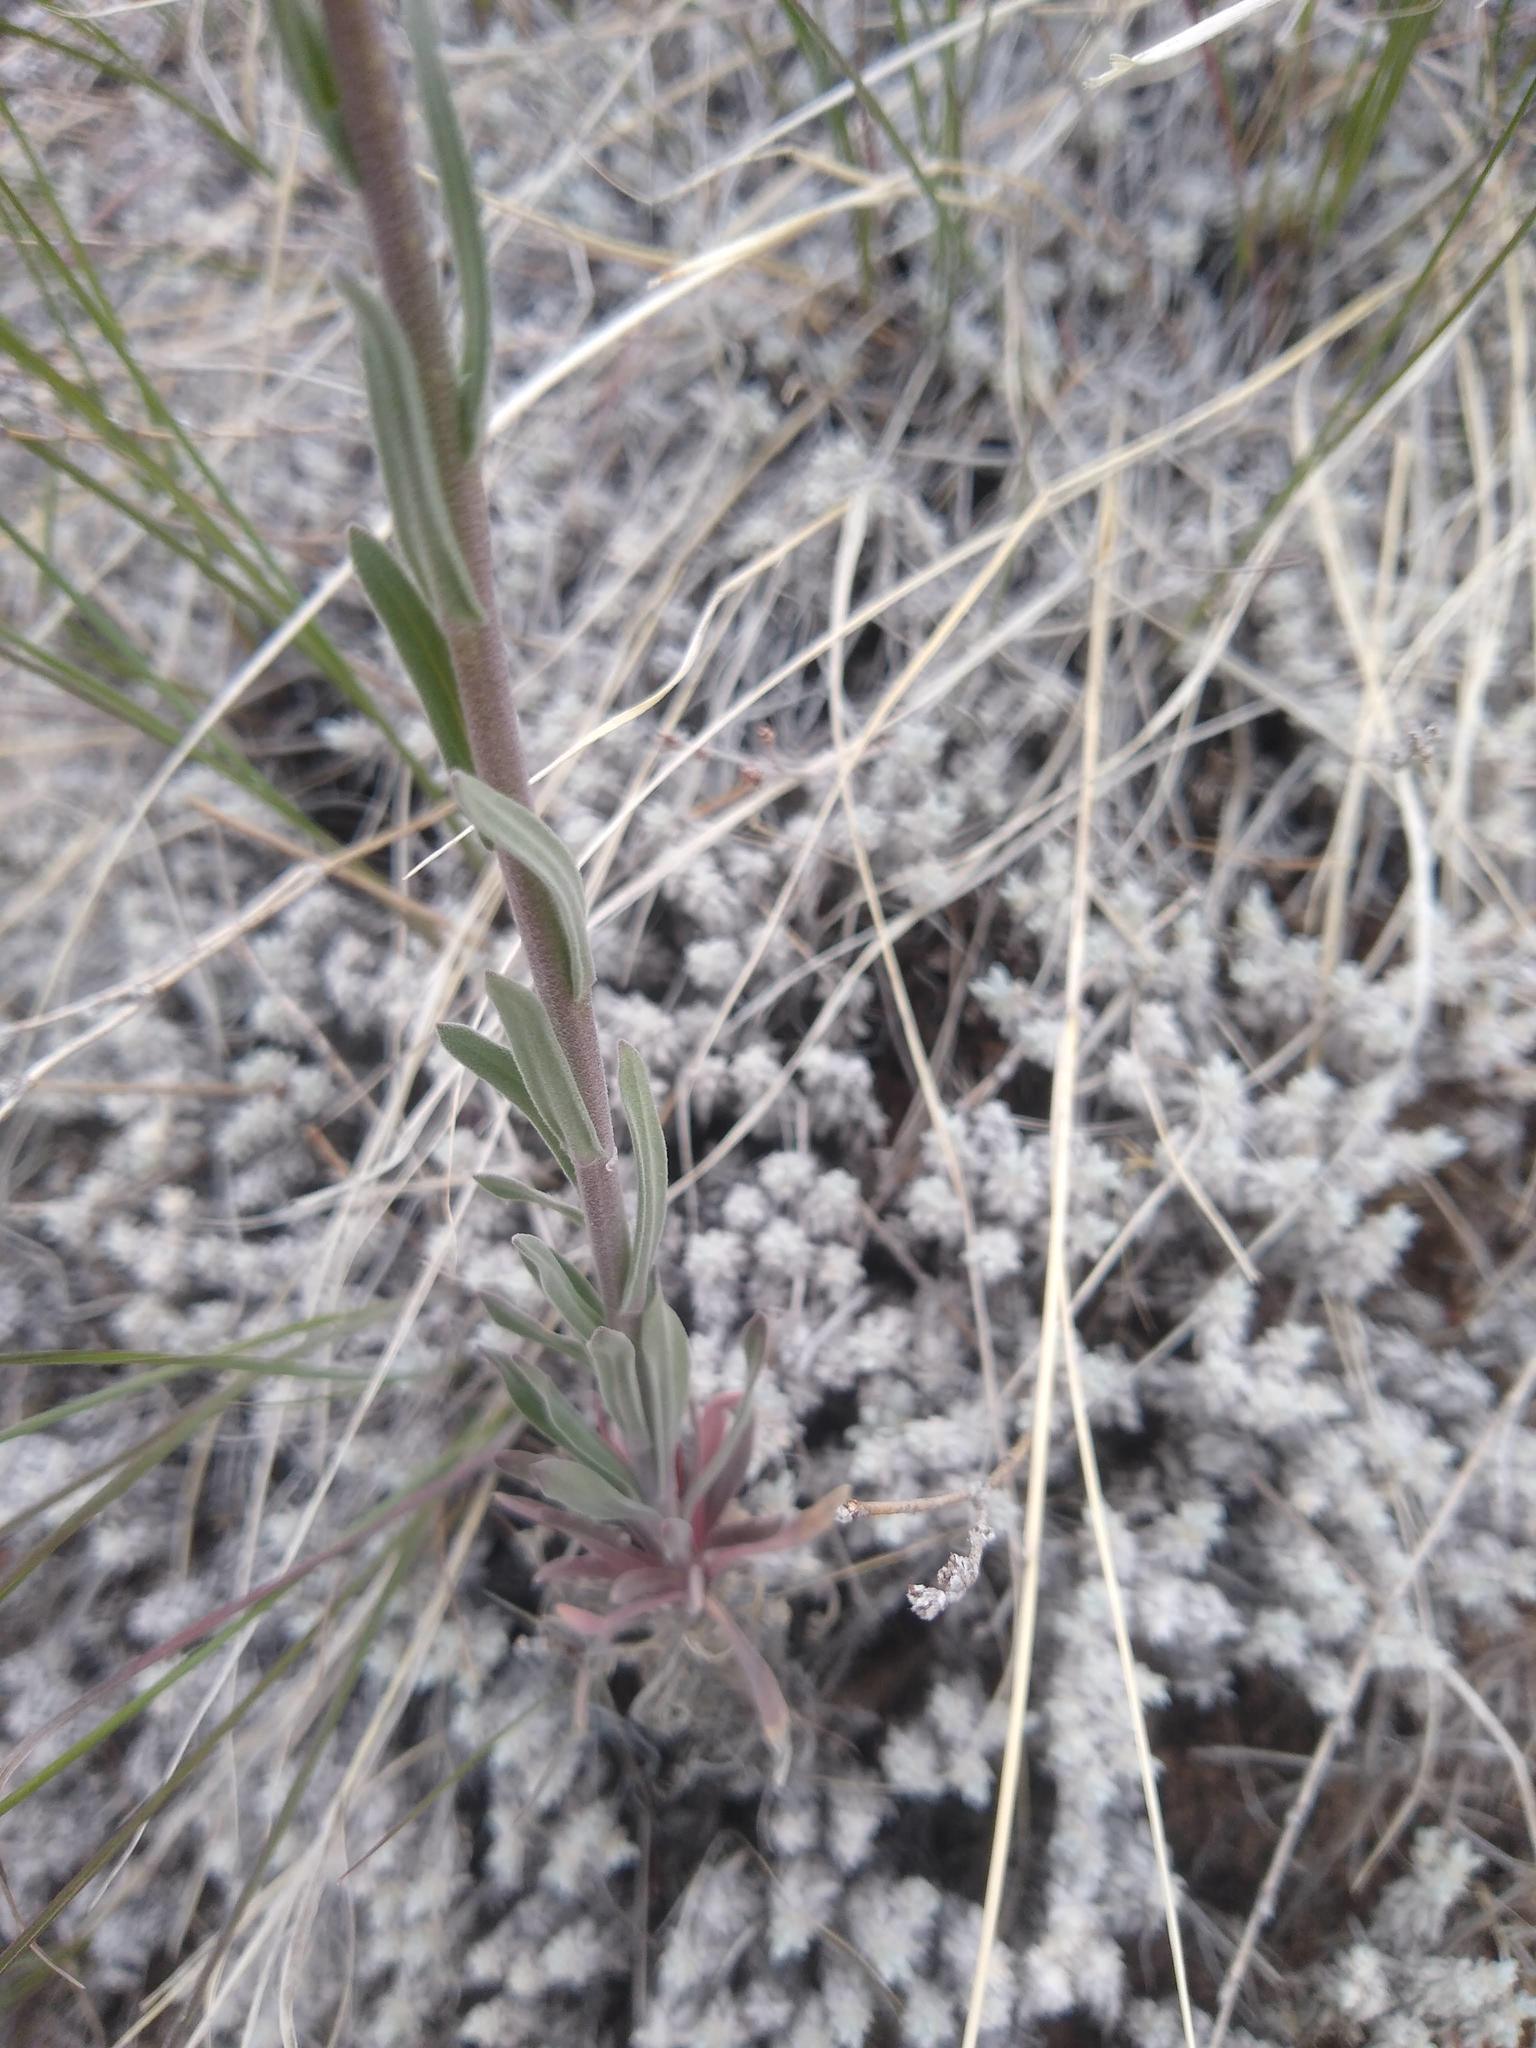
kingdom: Plantae
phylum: Tracheophyta
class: Magnoliopsida
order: Brassicales
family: Brassicaceae
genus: Turritis
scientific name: Turritis glabra
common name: Tower rockcress
